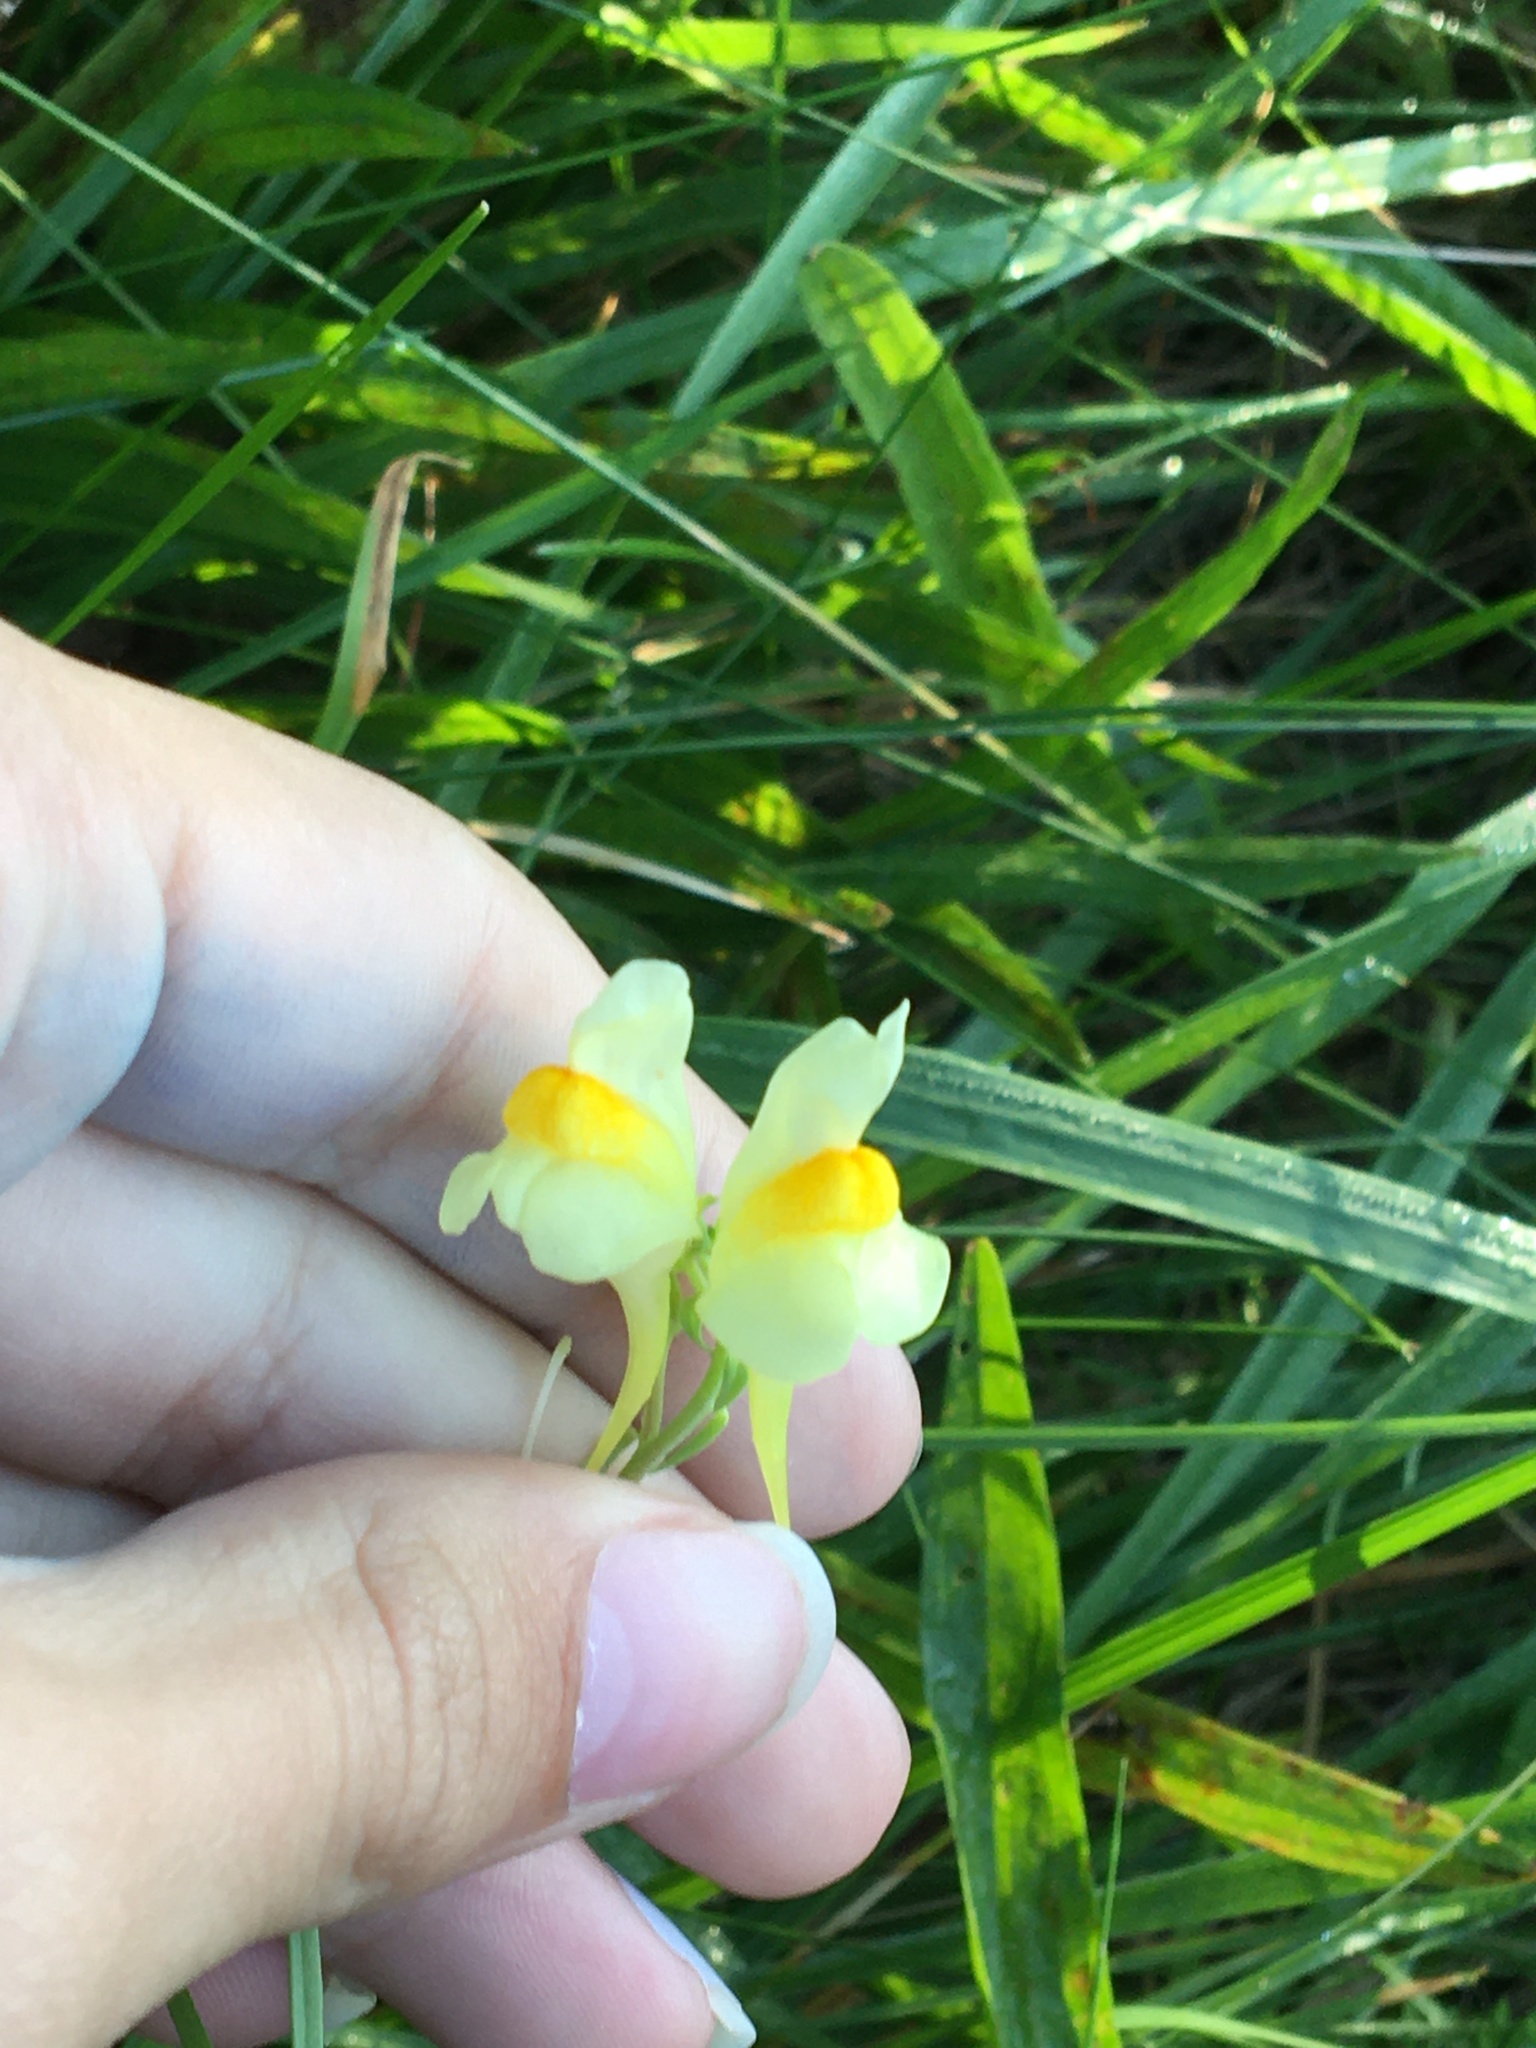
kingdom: Plantae
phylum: Tracheophyta
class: Magnoliopsida
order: Lamiales
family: Plantaginaceae
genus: Linaria
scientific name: Linaria vulgaris
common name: Butter and eggs
